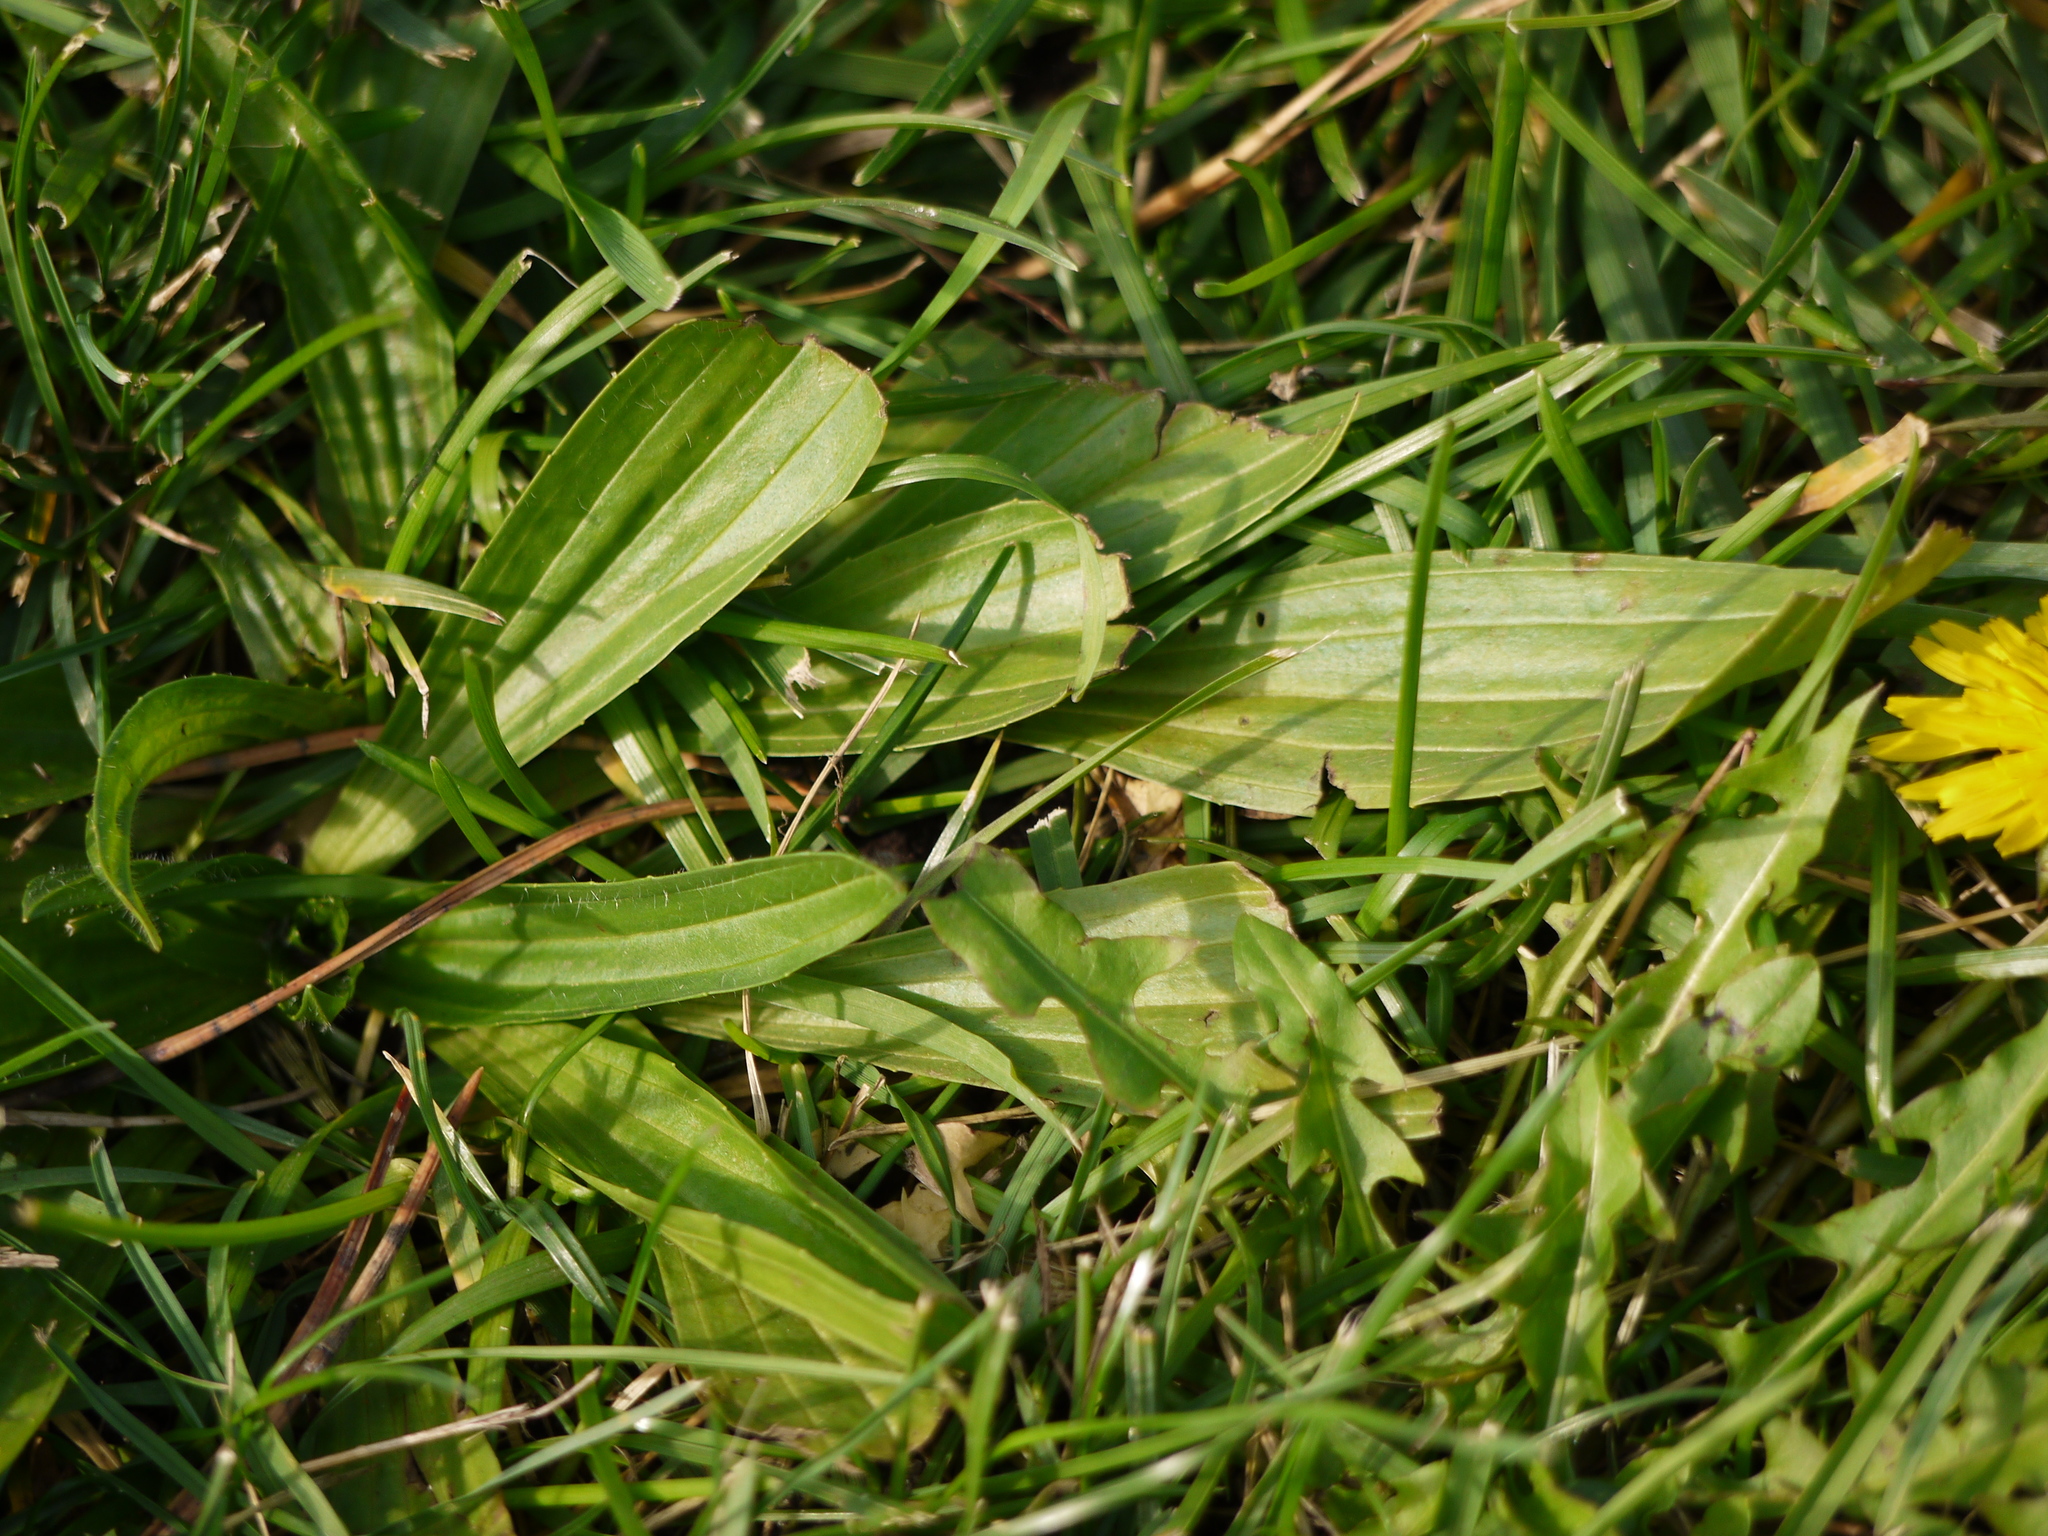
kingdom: Plantae
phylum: Tracheophyta
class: Magnoliopsida
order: Lamiales
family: Plantaginaceae
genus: Plantago
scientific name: Plantago lanceolata
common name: Ribwort plantain
